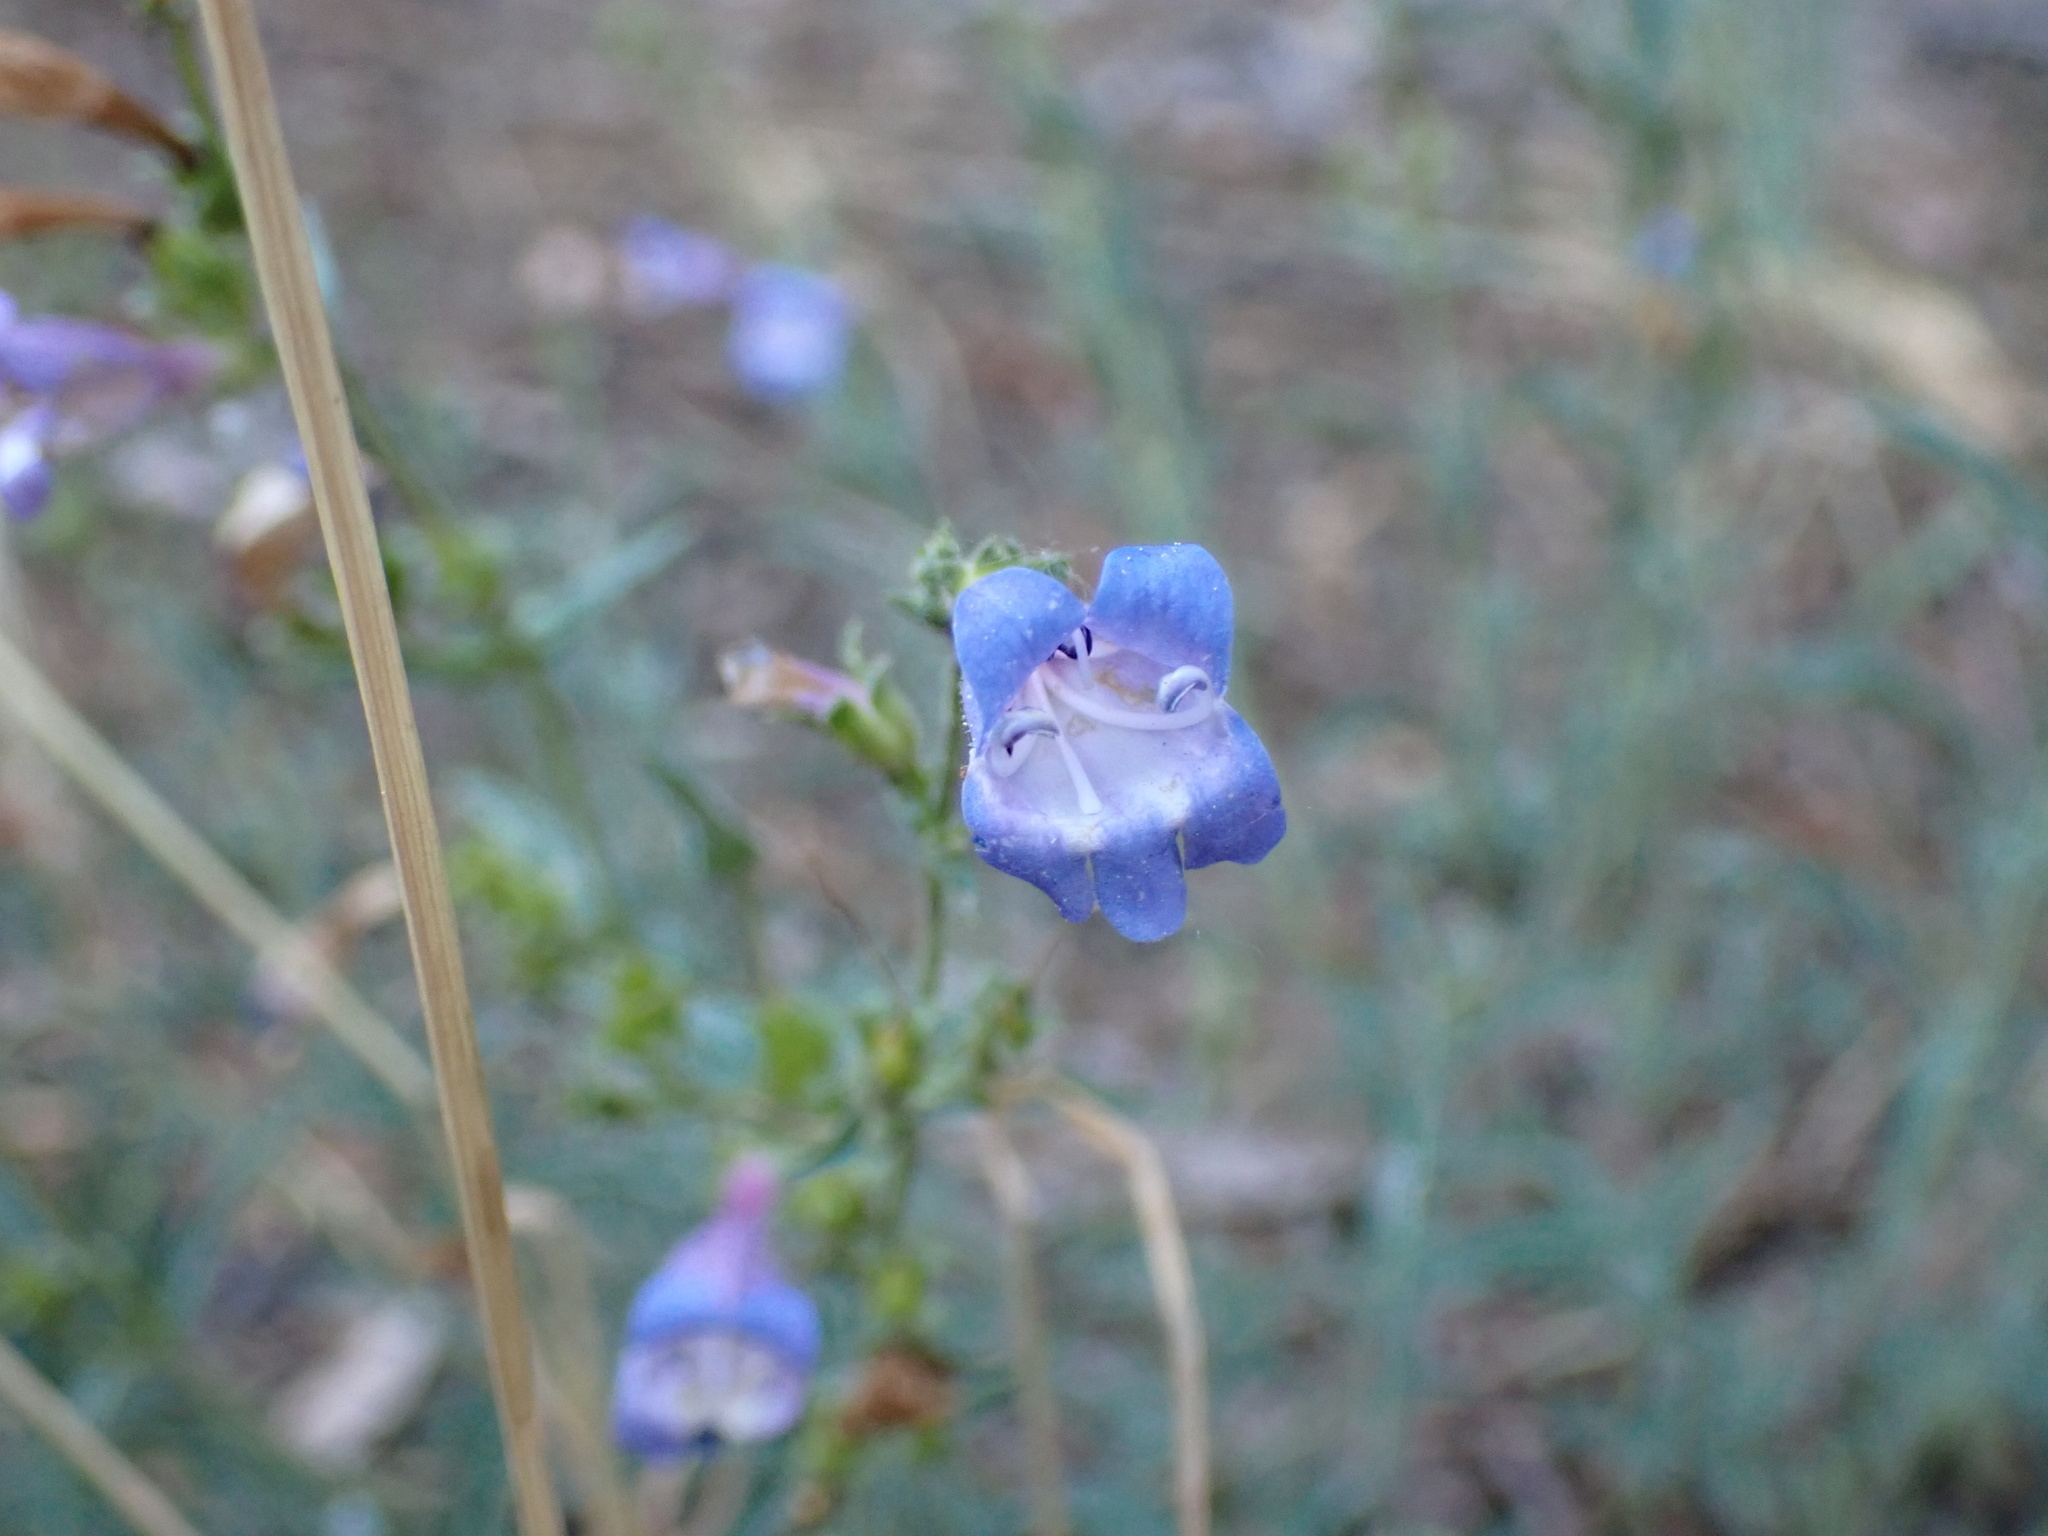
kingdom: Plantae
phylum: Tracheophyta
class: Magnoliopsida
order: Lamiales
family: Plantaginaceae
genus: Penstemon
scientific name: Penstemon laetus
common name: Gay penstemon
